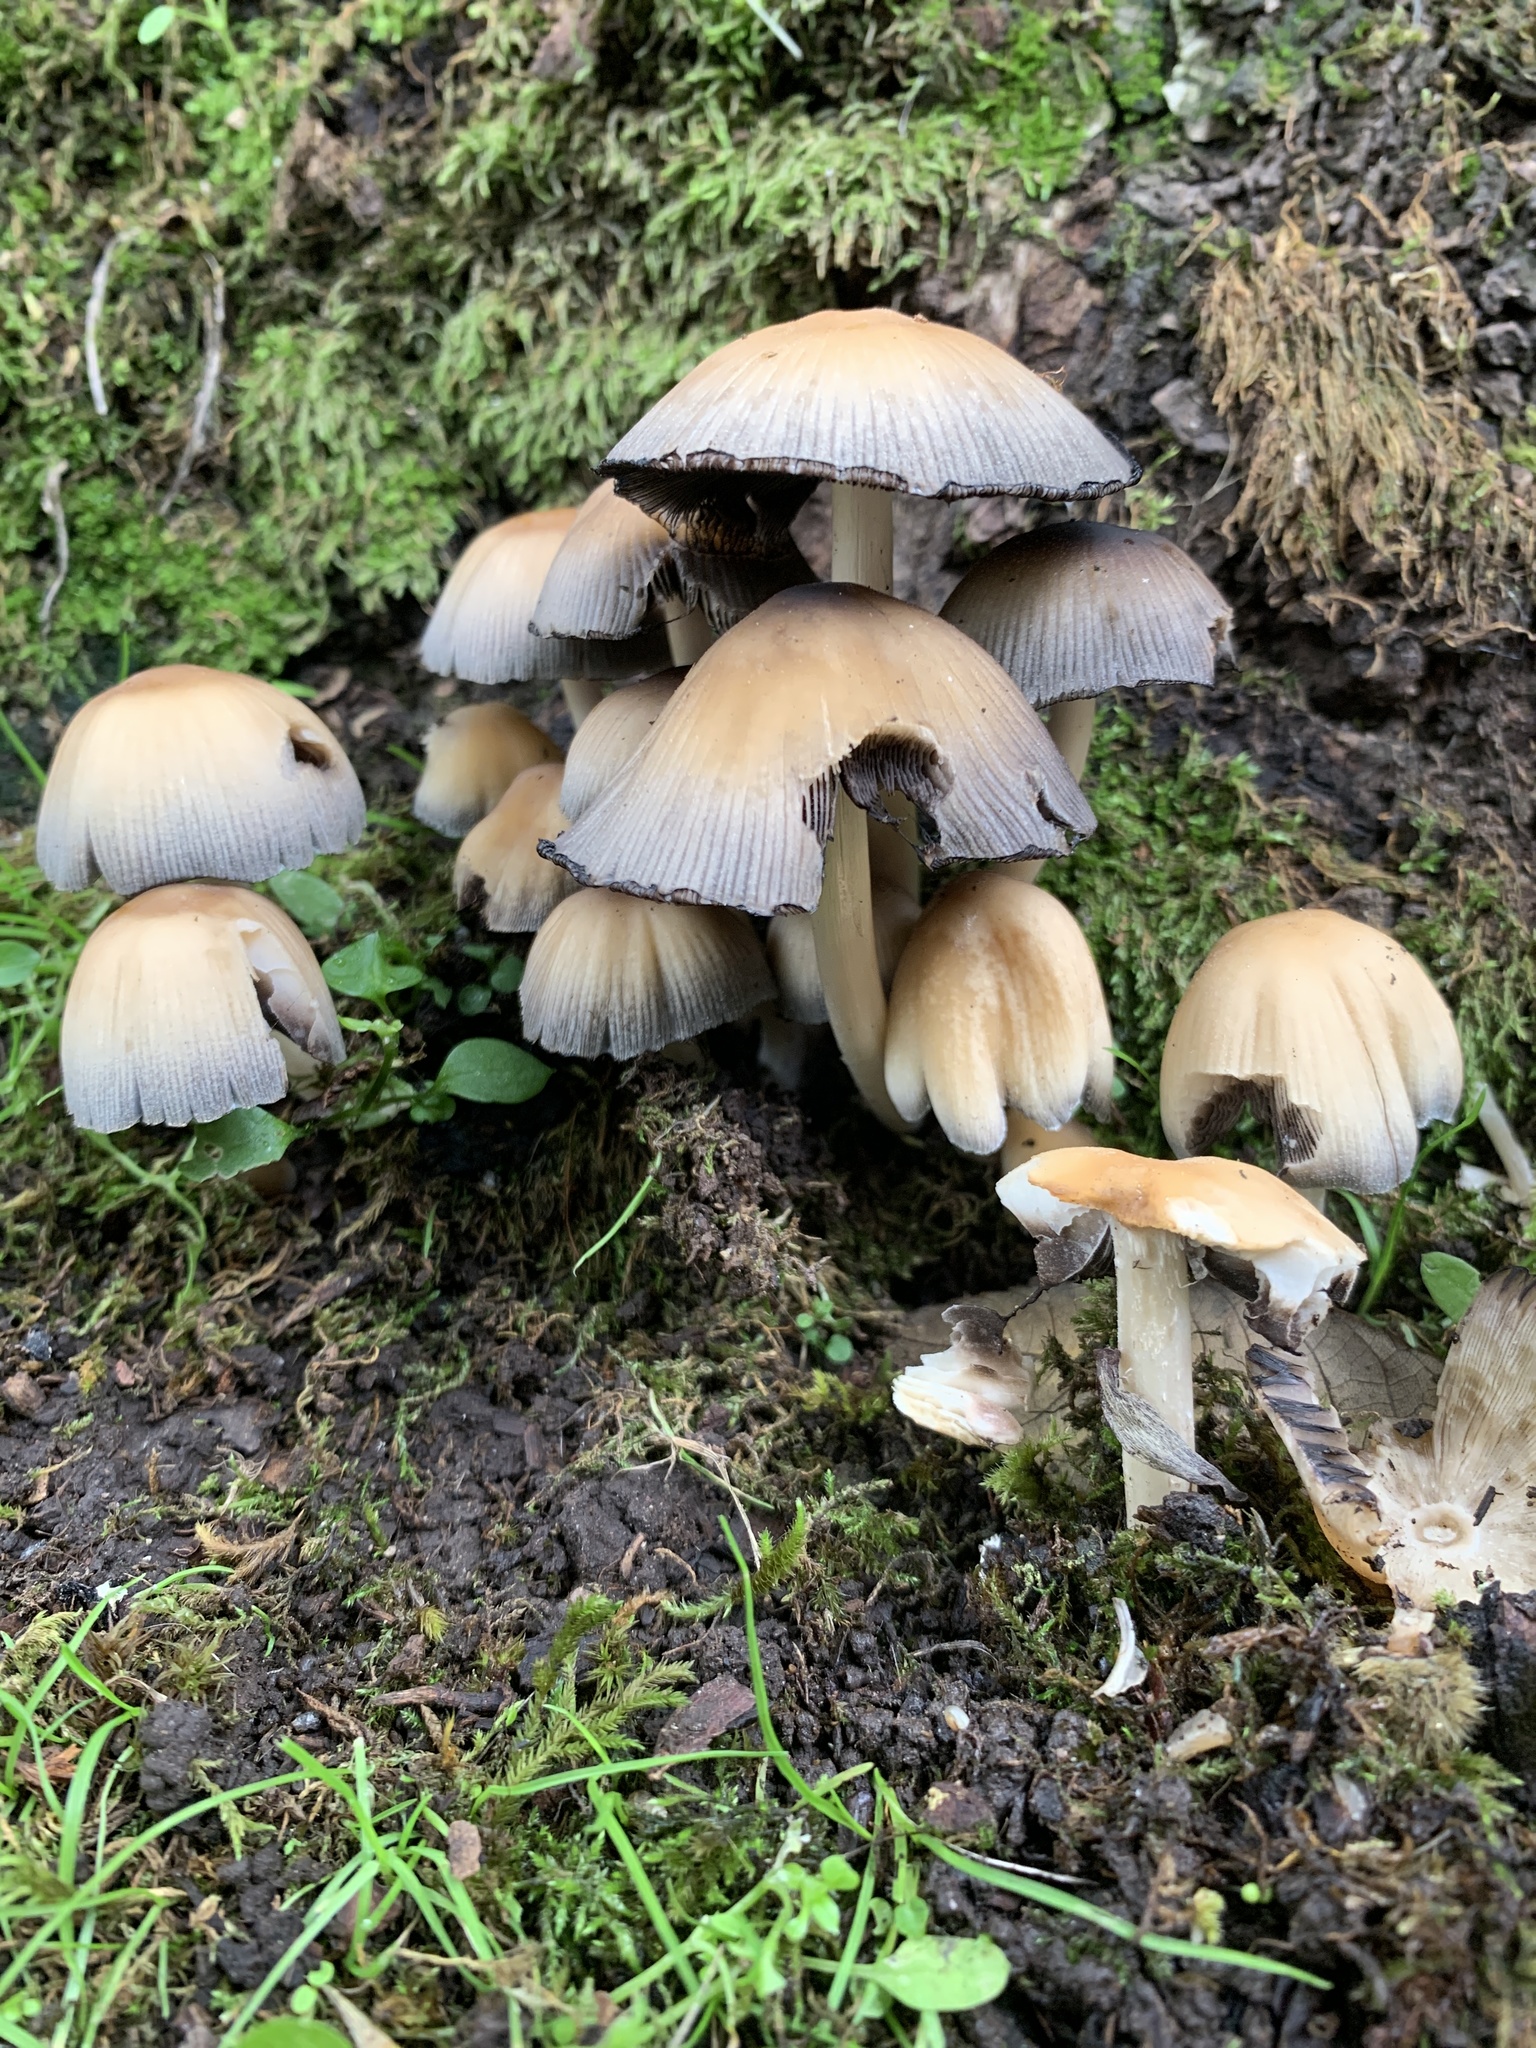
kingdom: Fungi
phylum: Basidiomycota
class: Agaricomycetes
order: Agaricales
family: Psathyrellaceae
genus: Coprinellus
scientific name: Coprinellus micaceus
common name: Glistening ink-cap
